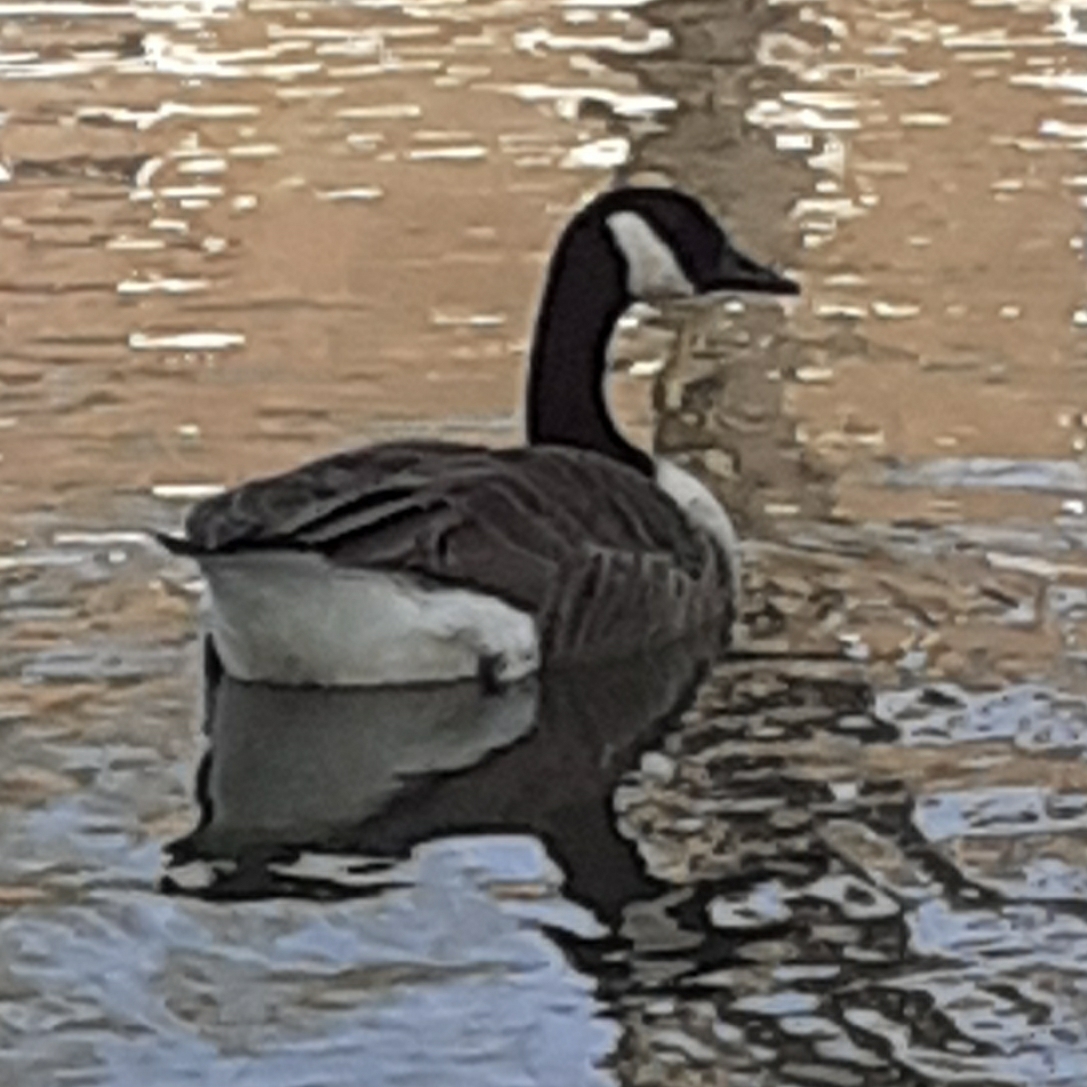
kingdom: Animalia
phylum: Chordata
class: Aves
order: Anseriformes
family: Anatidae
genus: Branta
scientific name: Branta canadensis
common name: Canada goose
